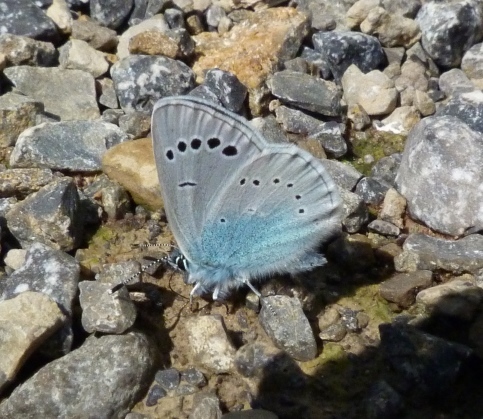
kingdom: Animalia
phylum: Arthropoda
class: Insecta
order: Lepidoptera
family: Lycaenidae
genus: Glaucopsyche
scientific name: Glaucopsyche alexis
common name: Green-underside blue
